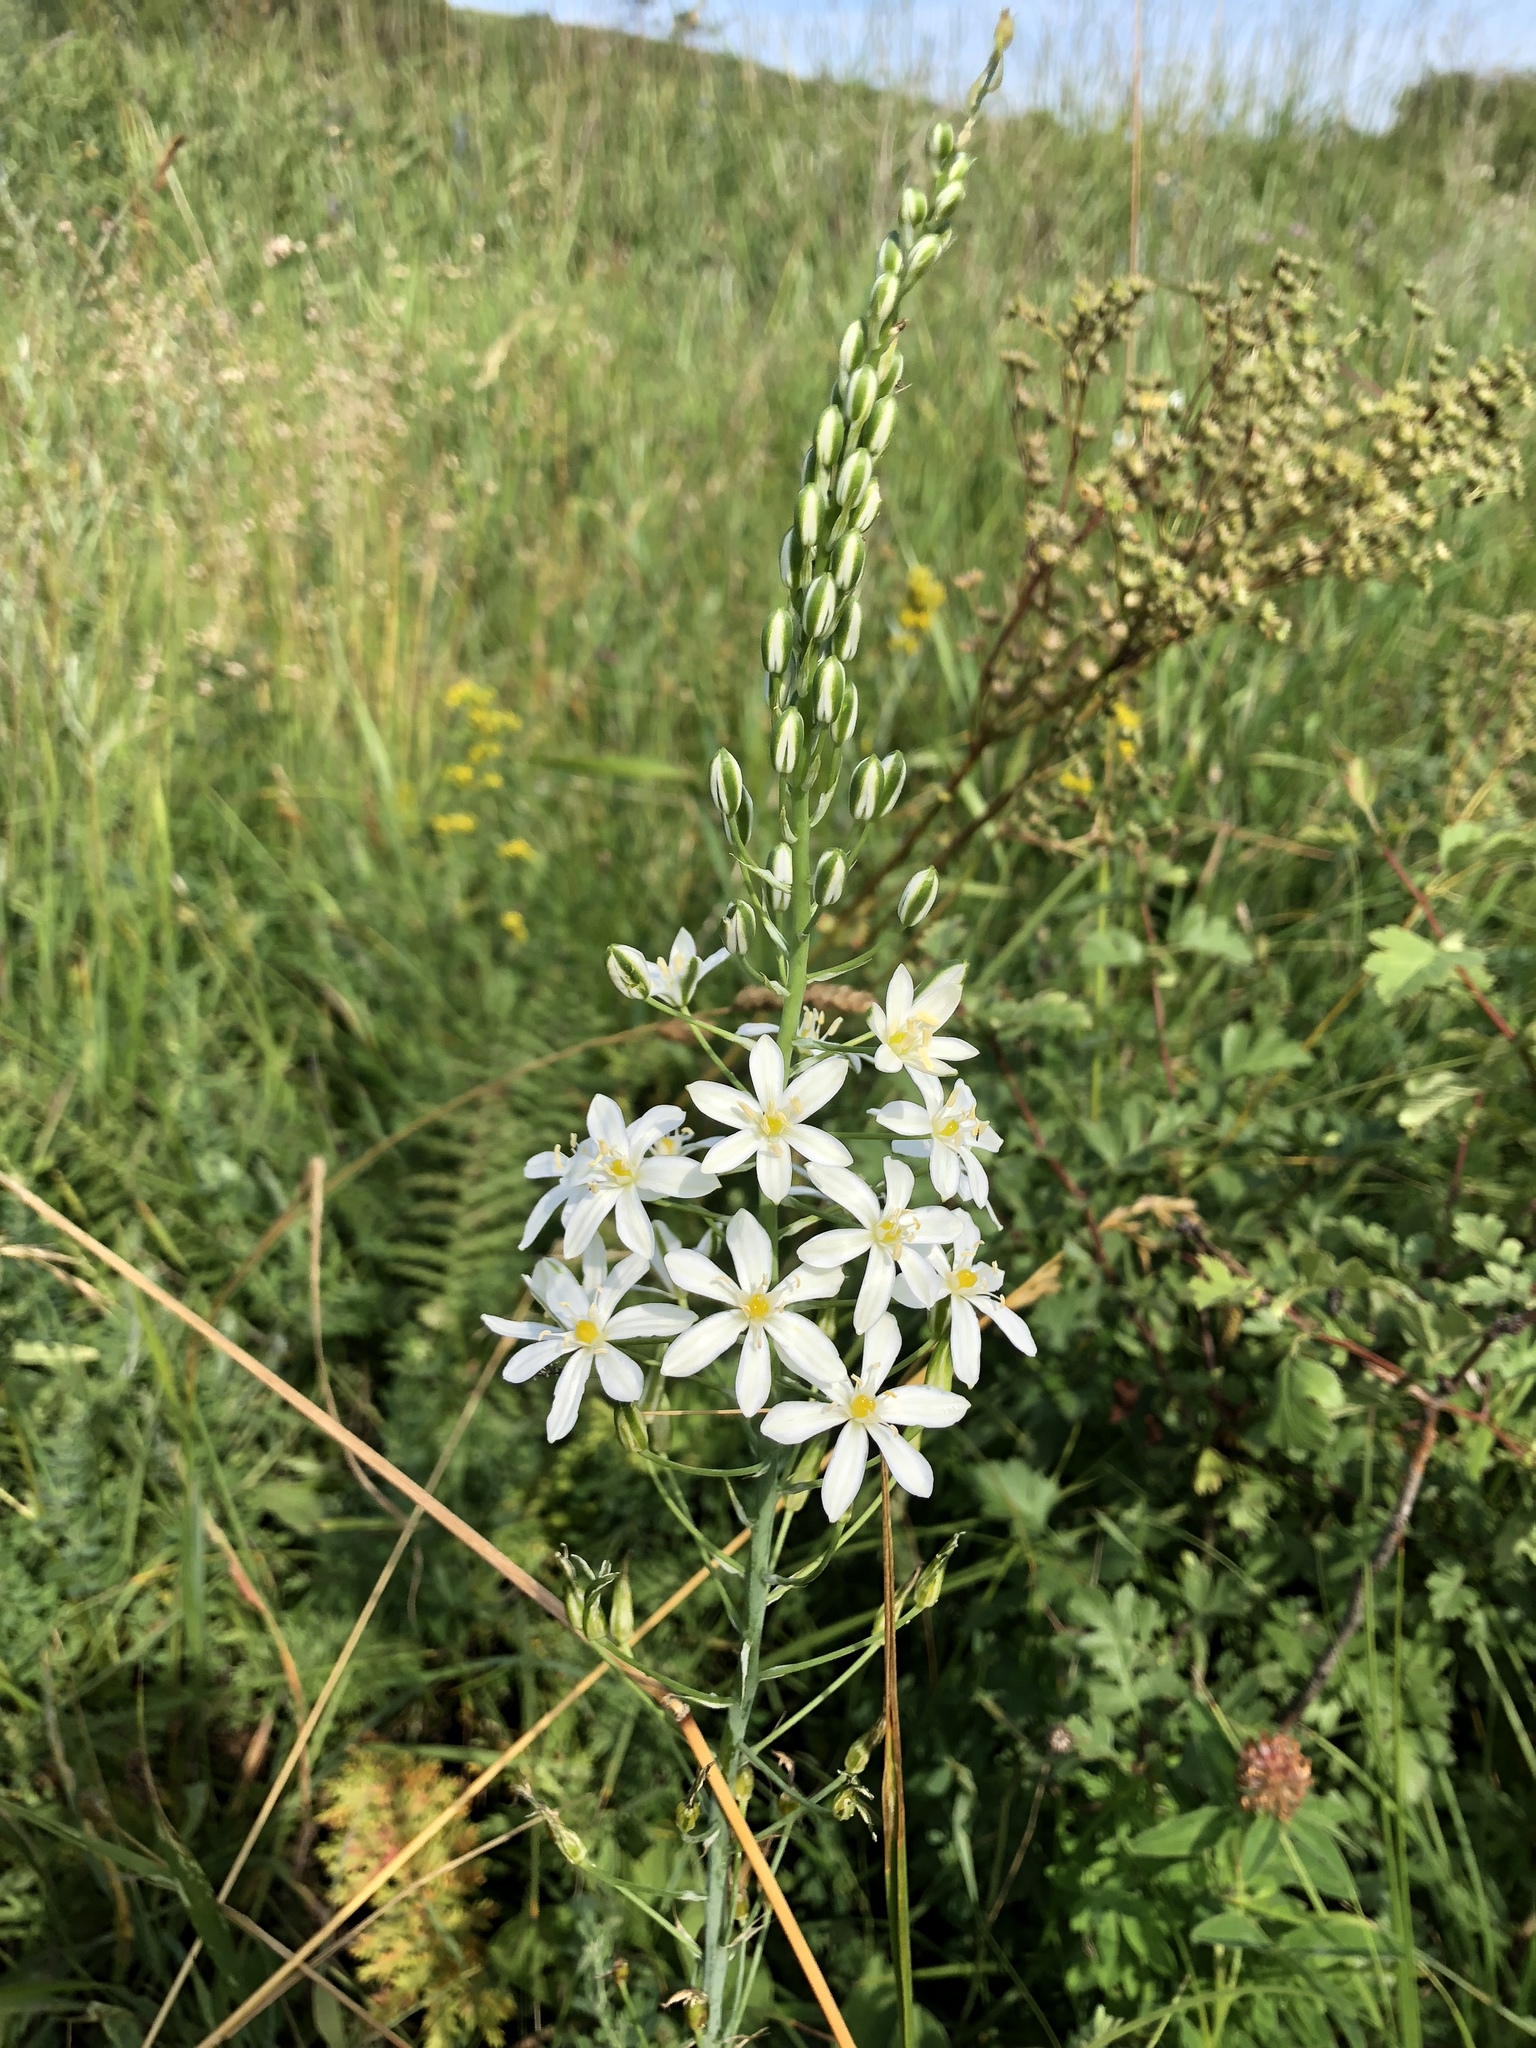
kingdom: Plantae
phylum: Tracheophyta
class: Liliopsida
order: Asparagales
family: Asparagaceae
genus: Ornithogalum
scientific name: Ornithogalum pyramidale
